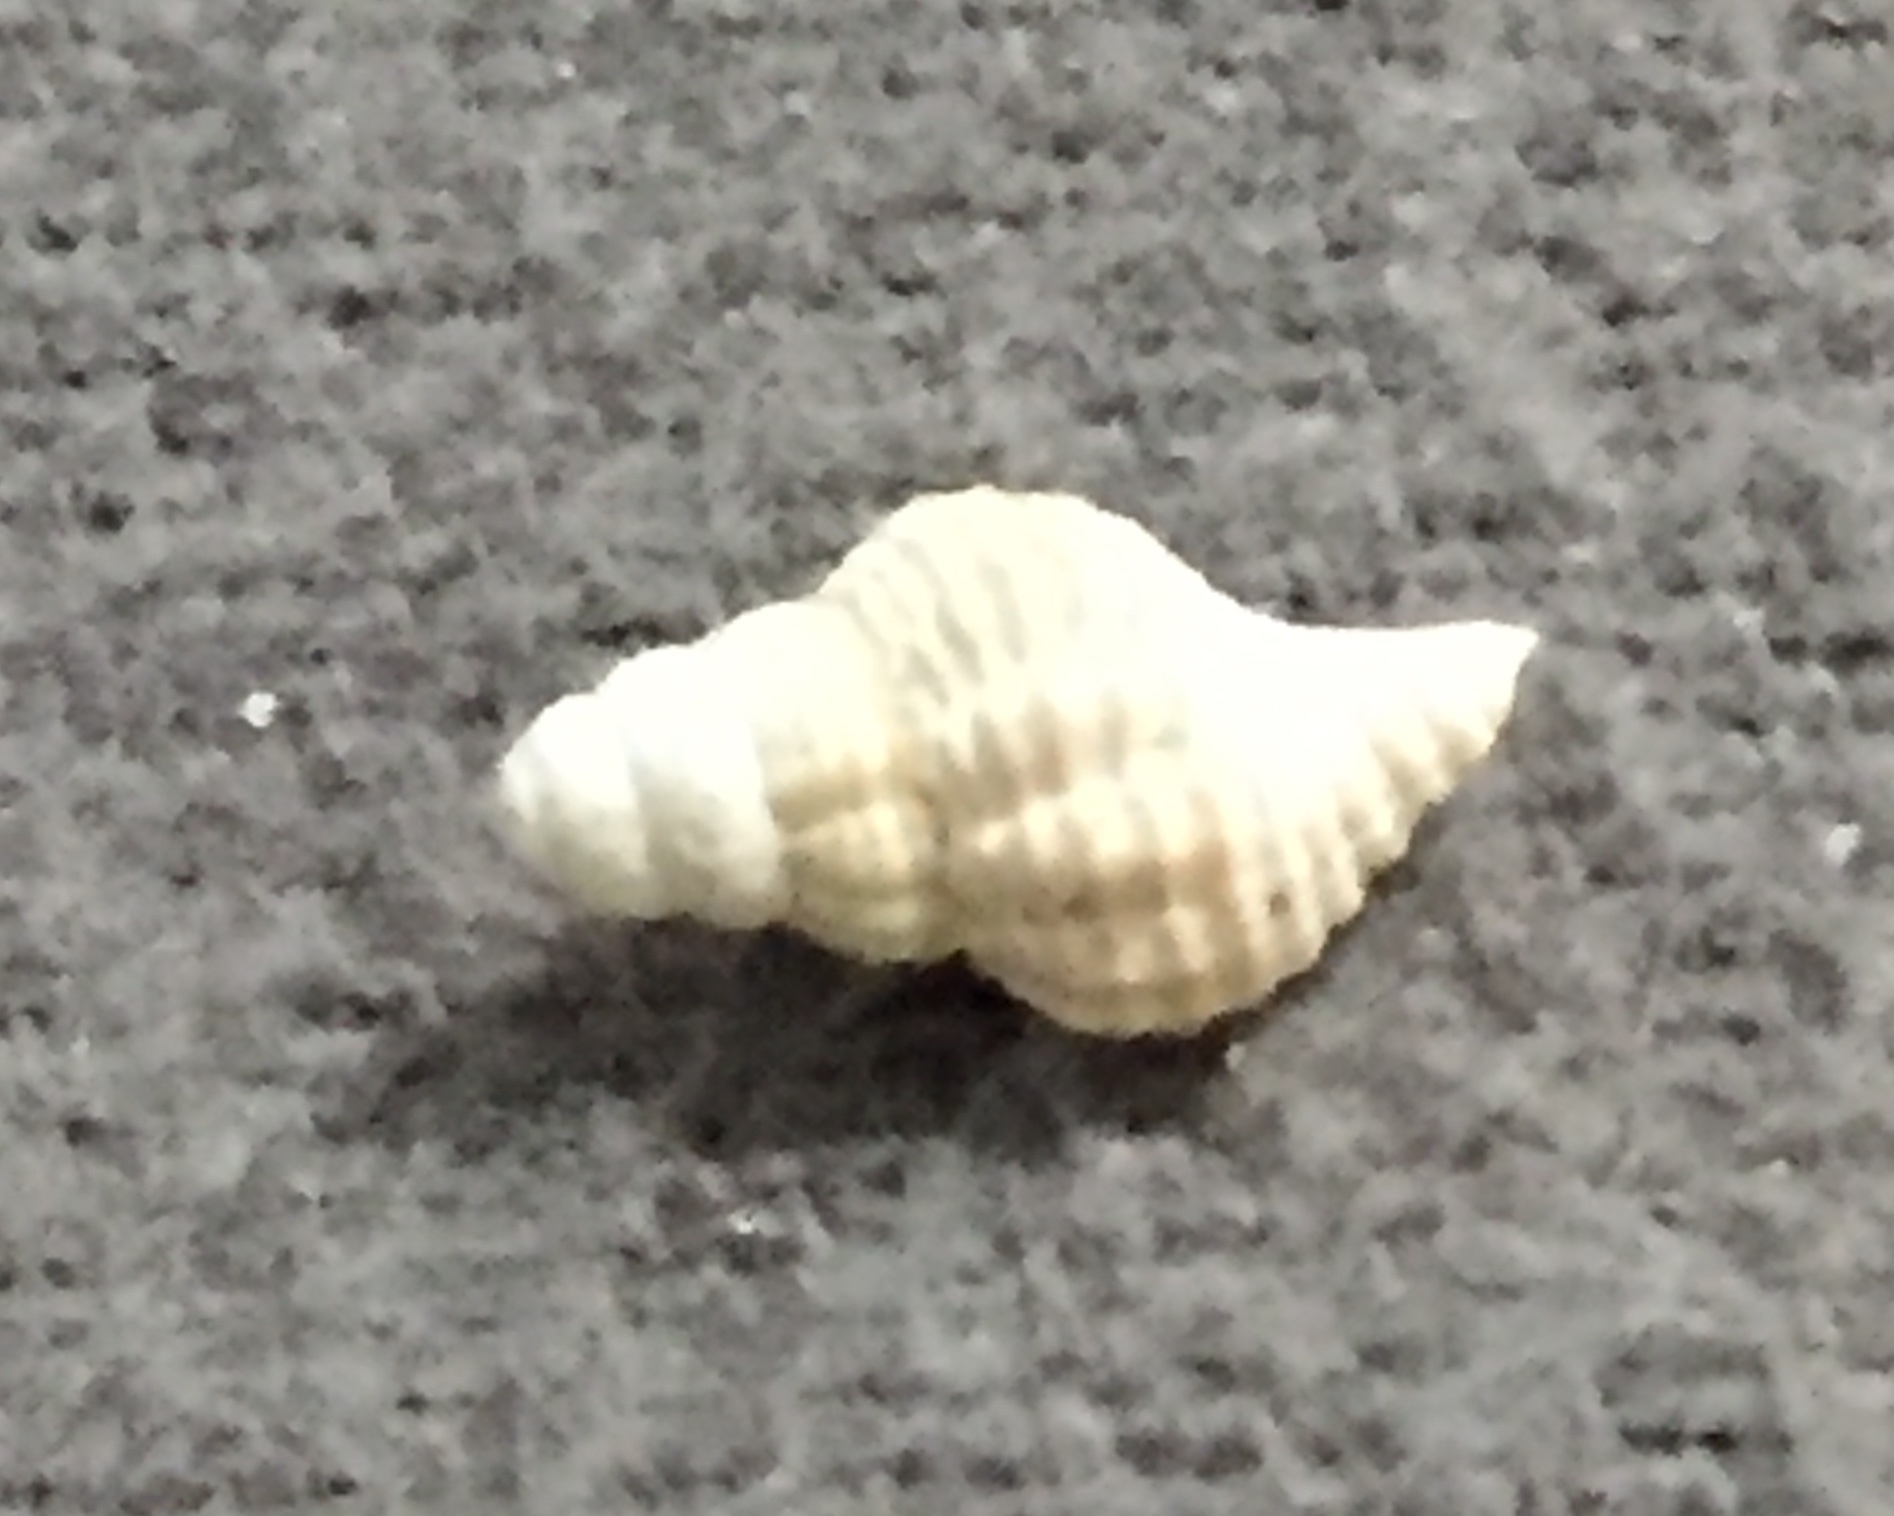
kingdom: Animalia
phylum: Mollusca
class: Gastropoda
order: Neogastropoda
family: Austrosiphonidae
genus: Penion
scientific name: Penion sulcatus
